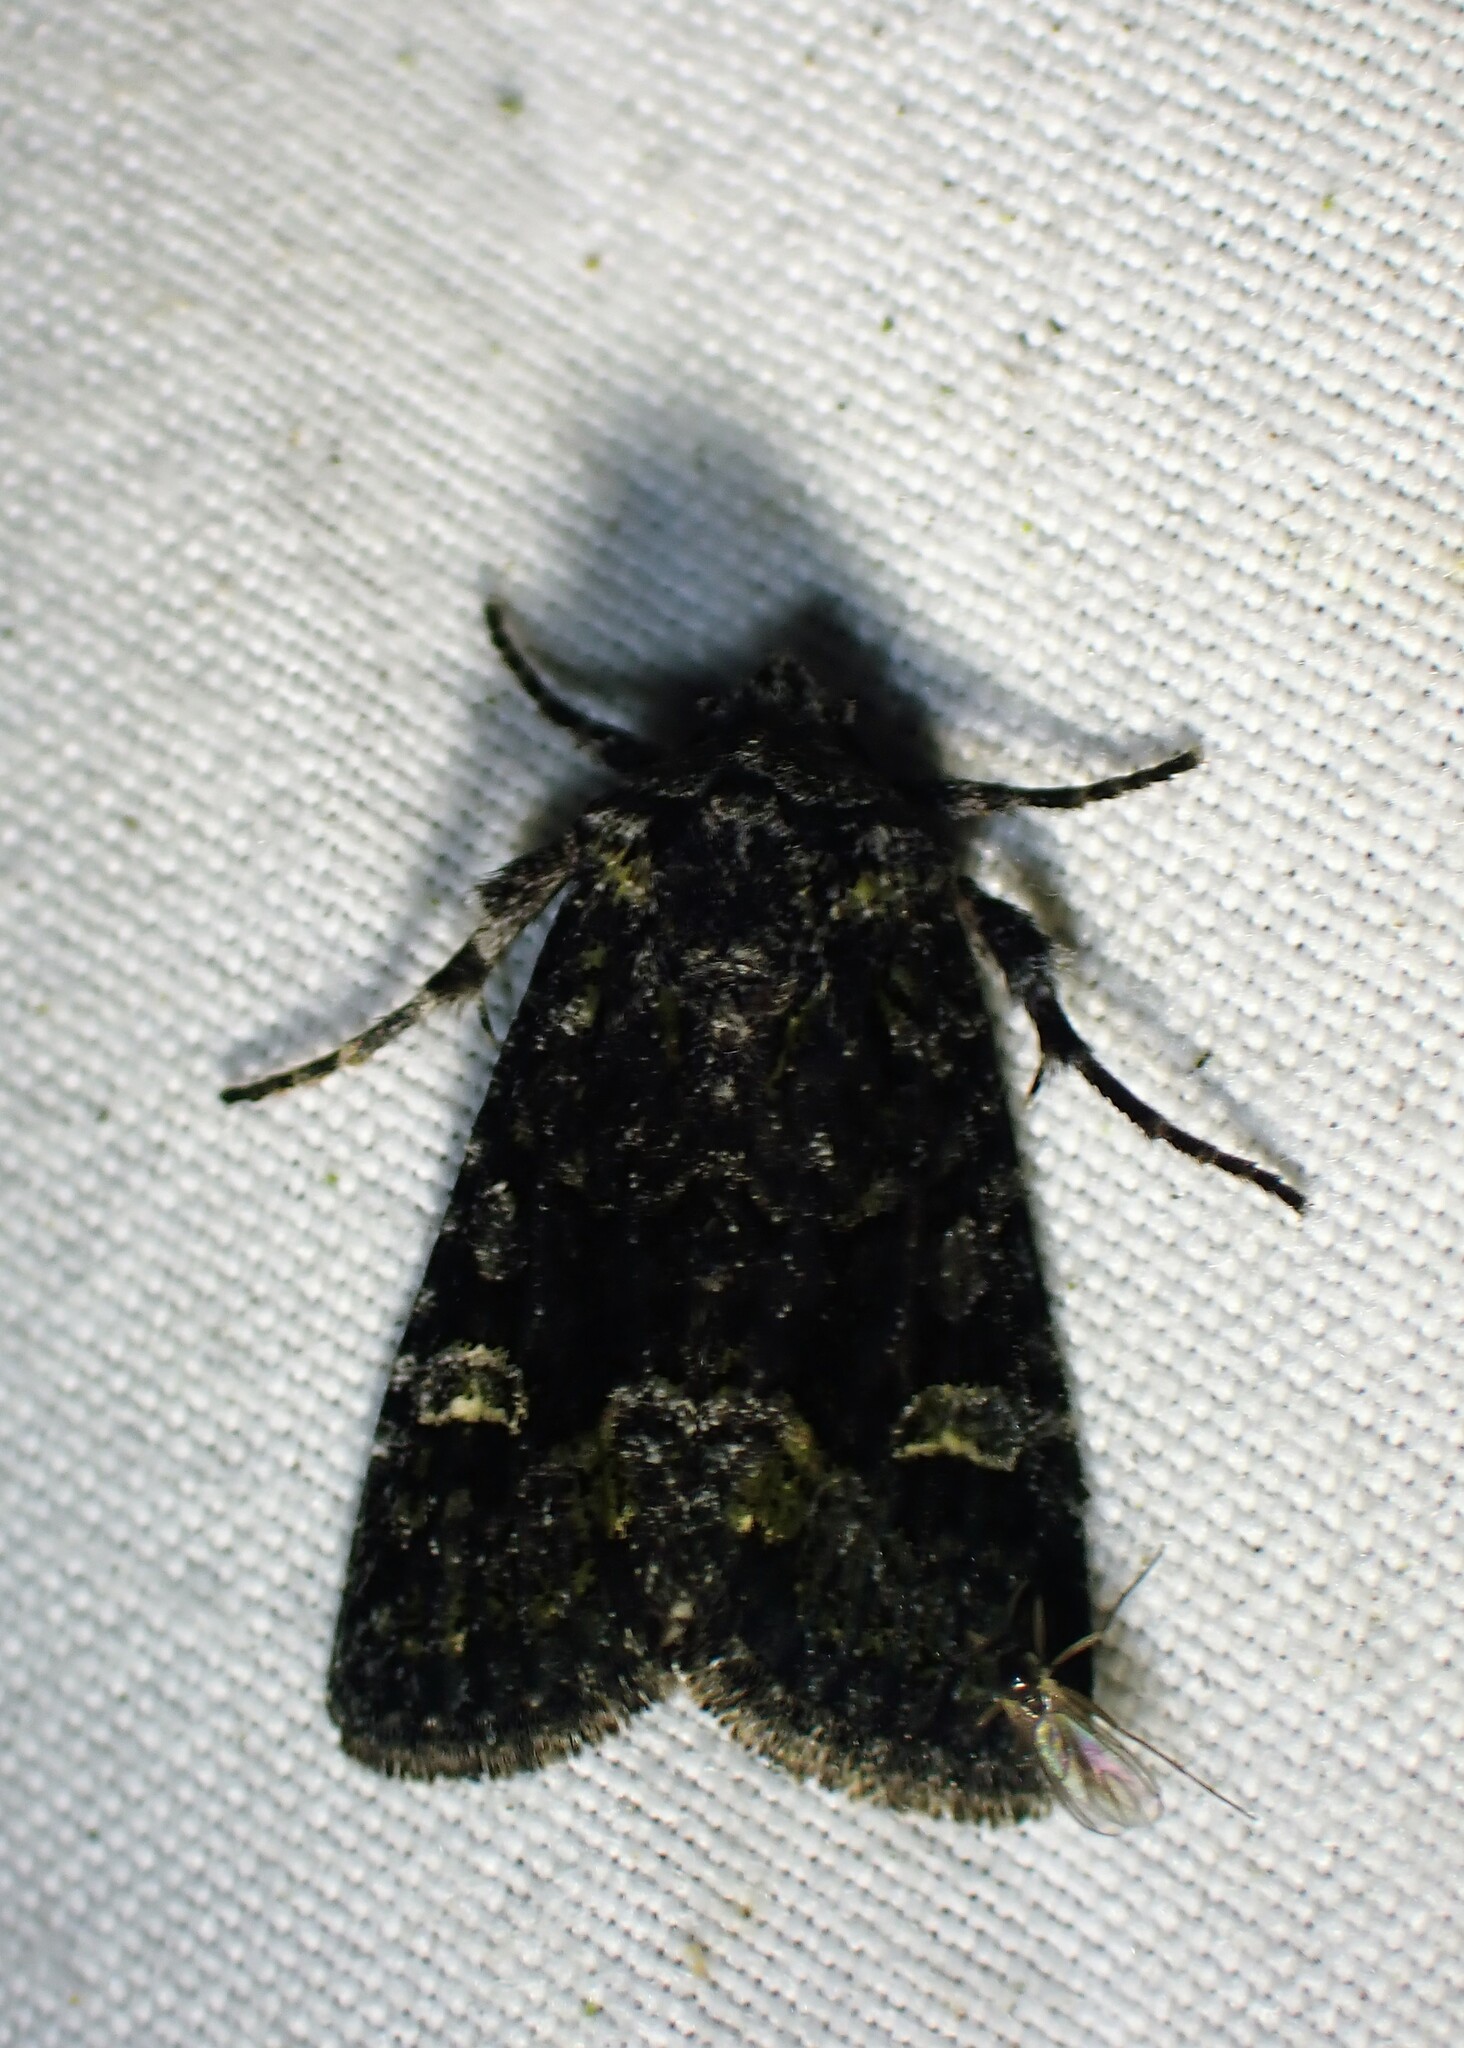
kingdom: Animalia
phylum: Arthropoda
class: Insecta
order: Lepidoptera
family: Noctuidae
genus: Lacinipolia
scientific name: Lacinipolia olivacea
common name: Olive arches moth
